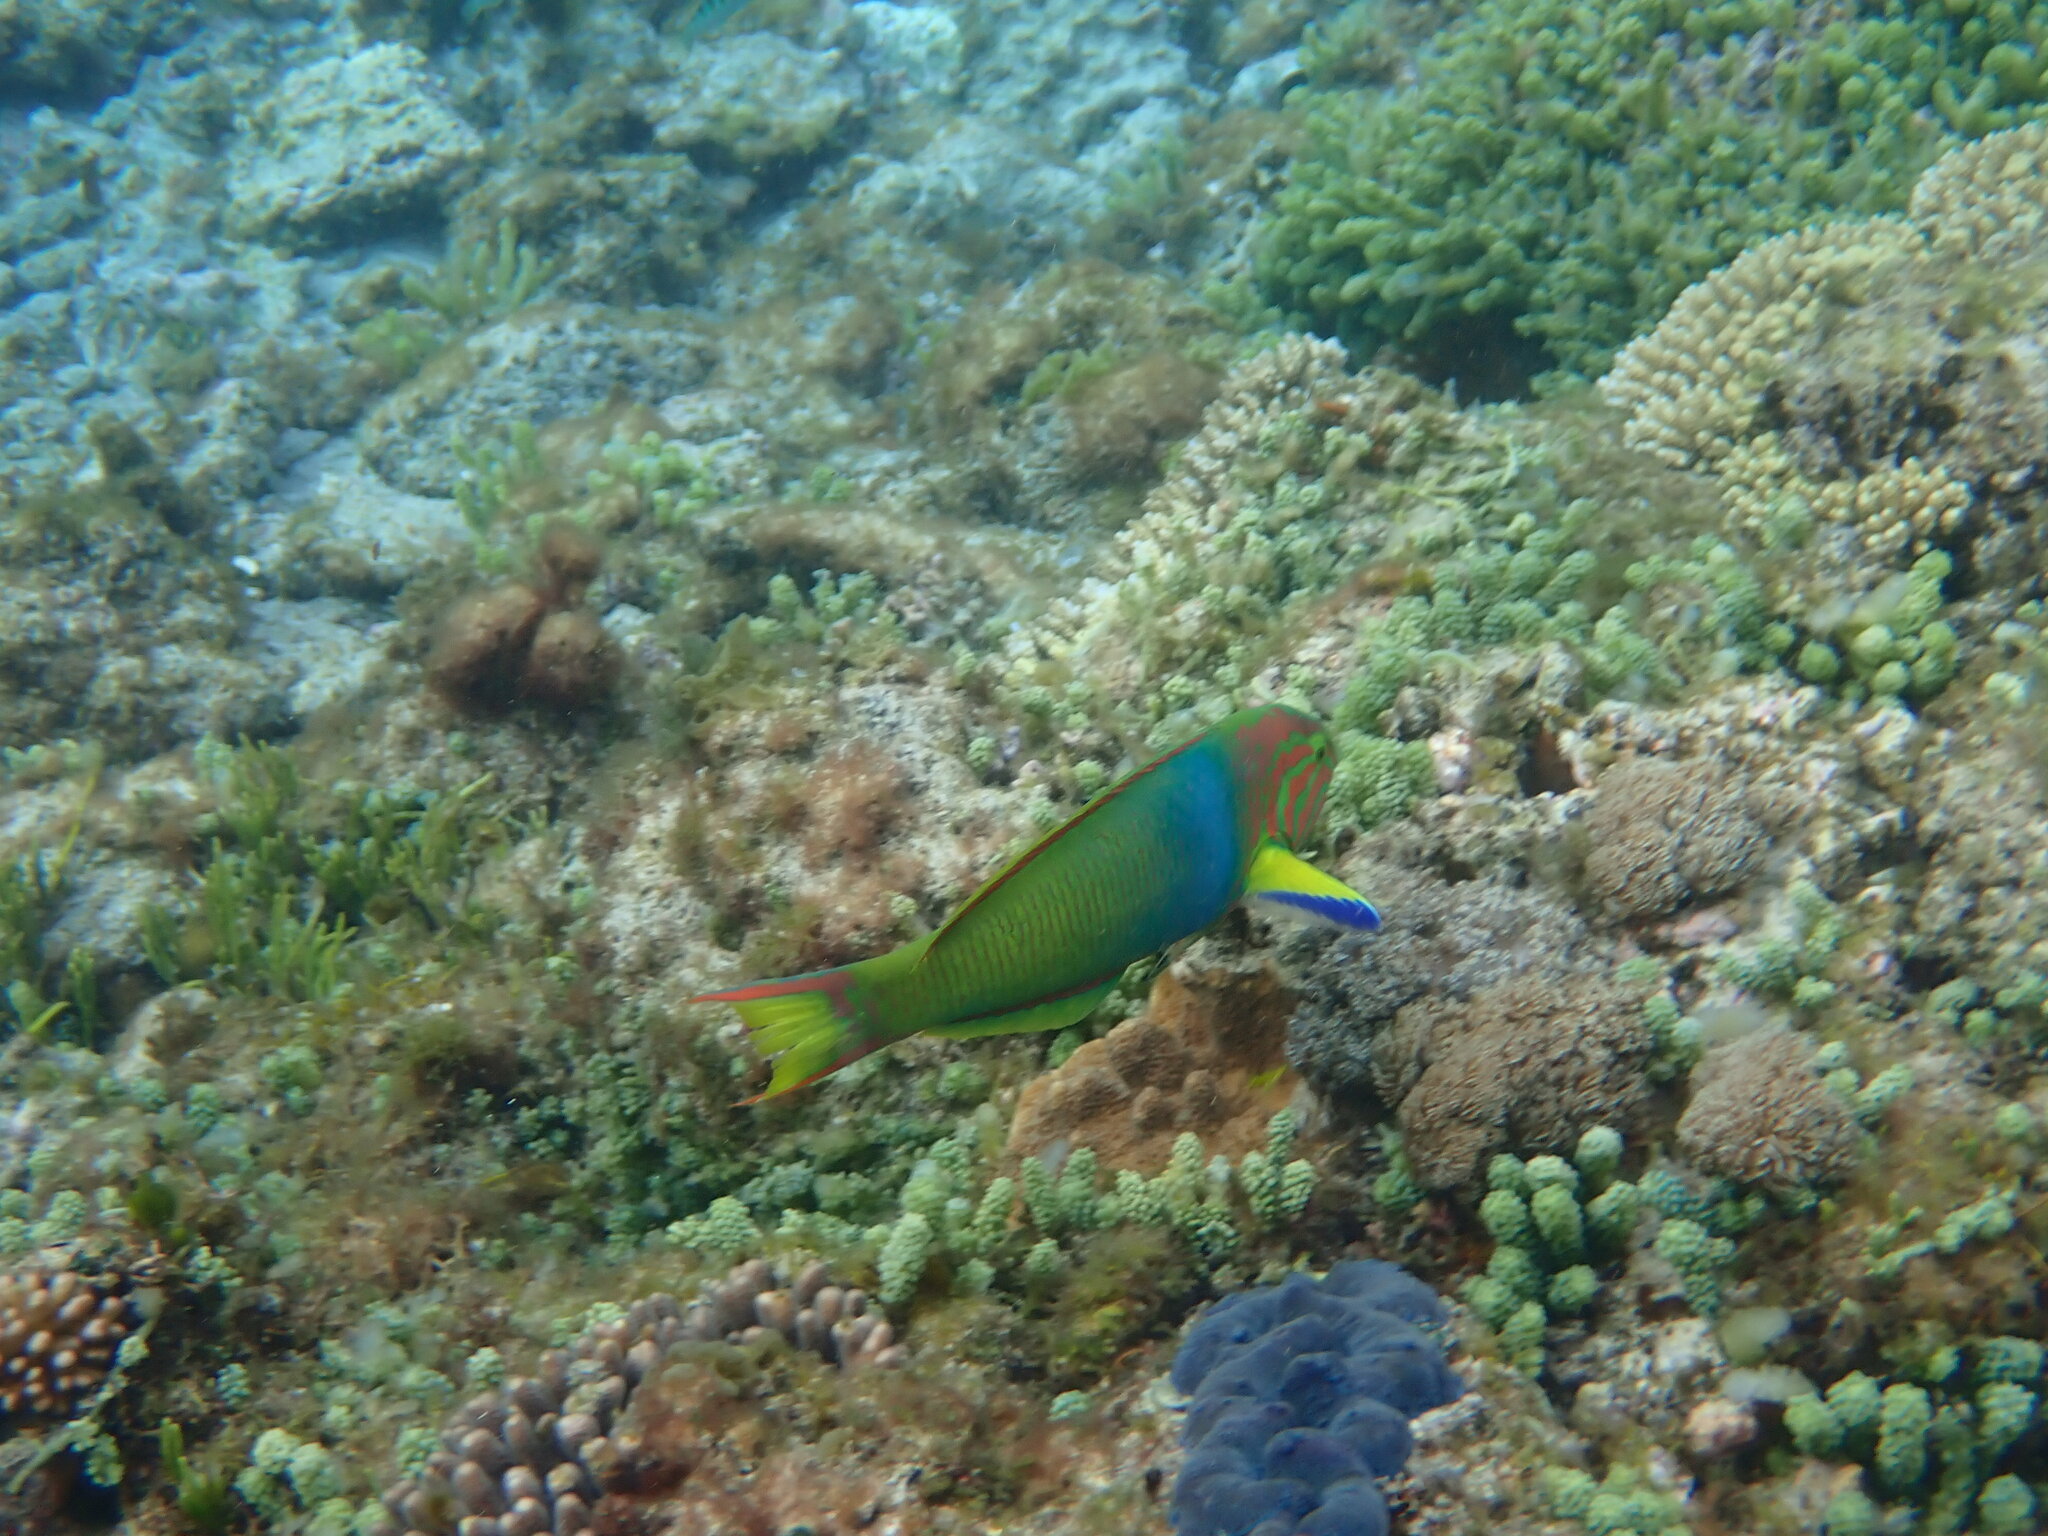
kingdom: Animalia
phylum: Chordata
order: Perciformes
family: Labridae
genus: Thalassoma
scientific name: Thalassoma lutescens
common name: Green moon wrasse
